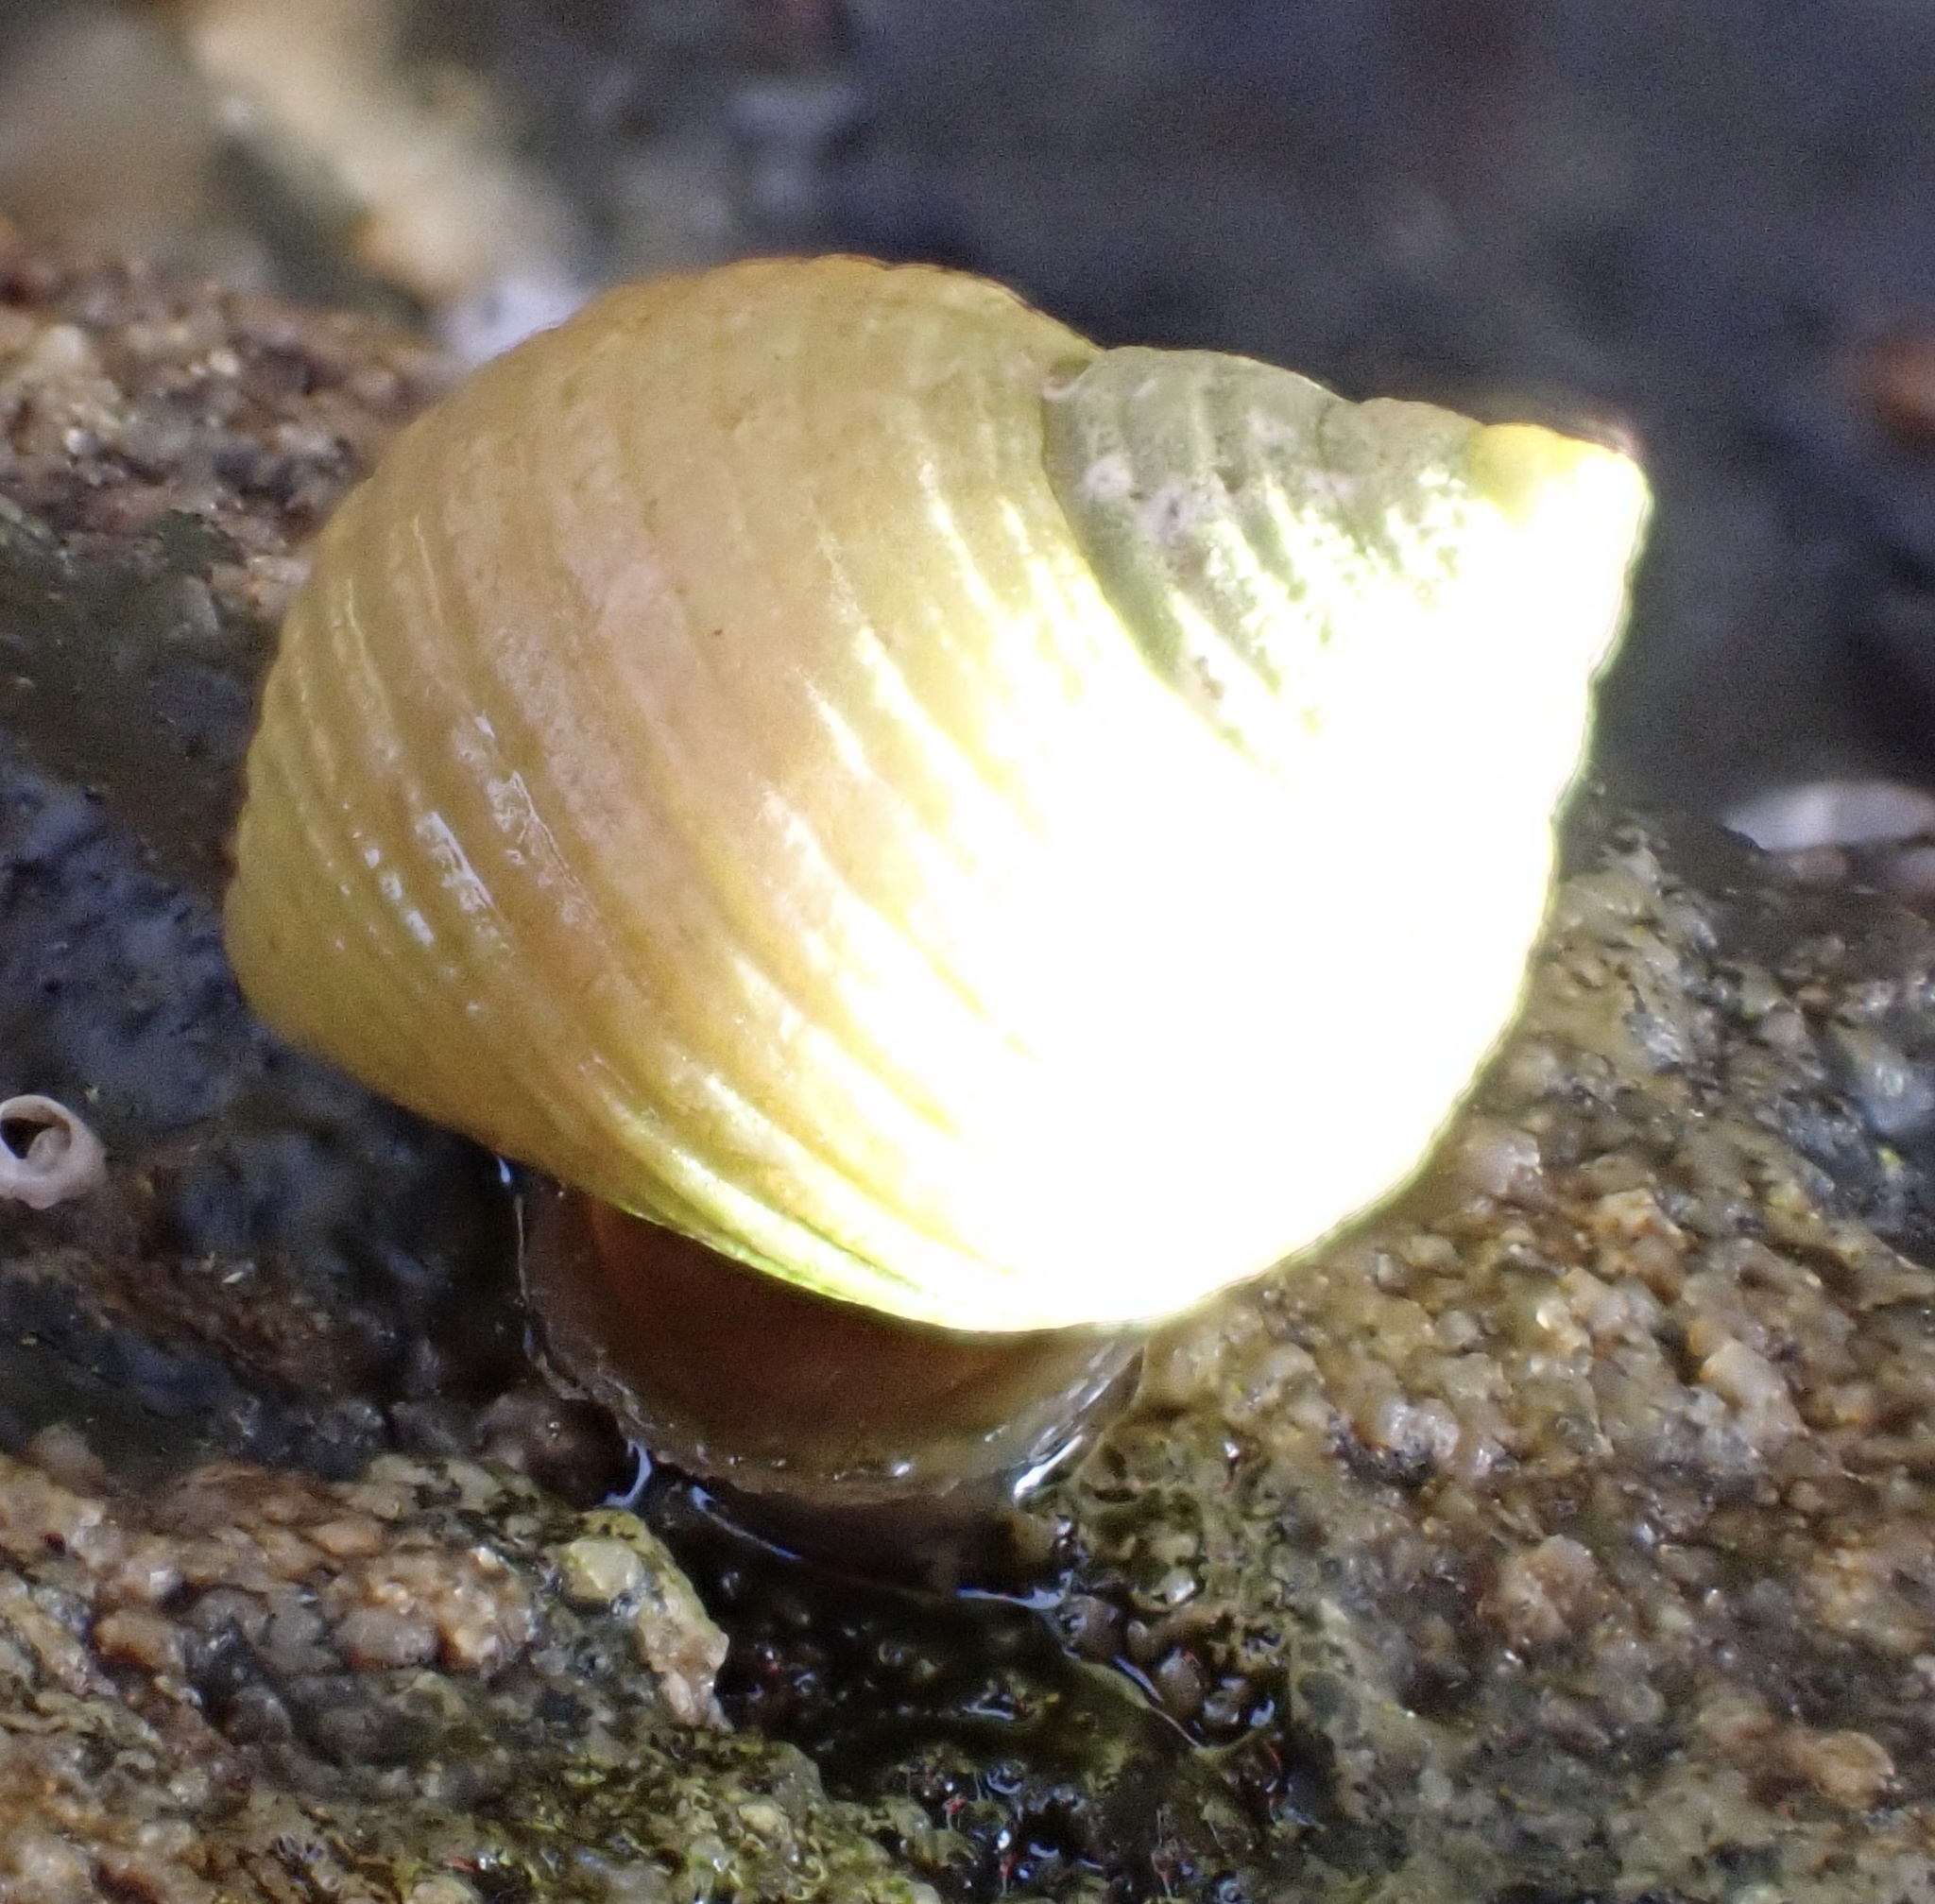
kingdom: Animalia
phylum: Mollusca
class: Gastropoda
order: Littorinimorpha
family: Littorinidae
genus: Littorina
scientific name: Littorina compressa
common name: Black-lined periwinkle
